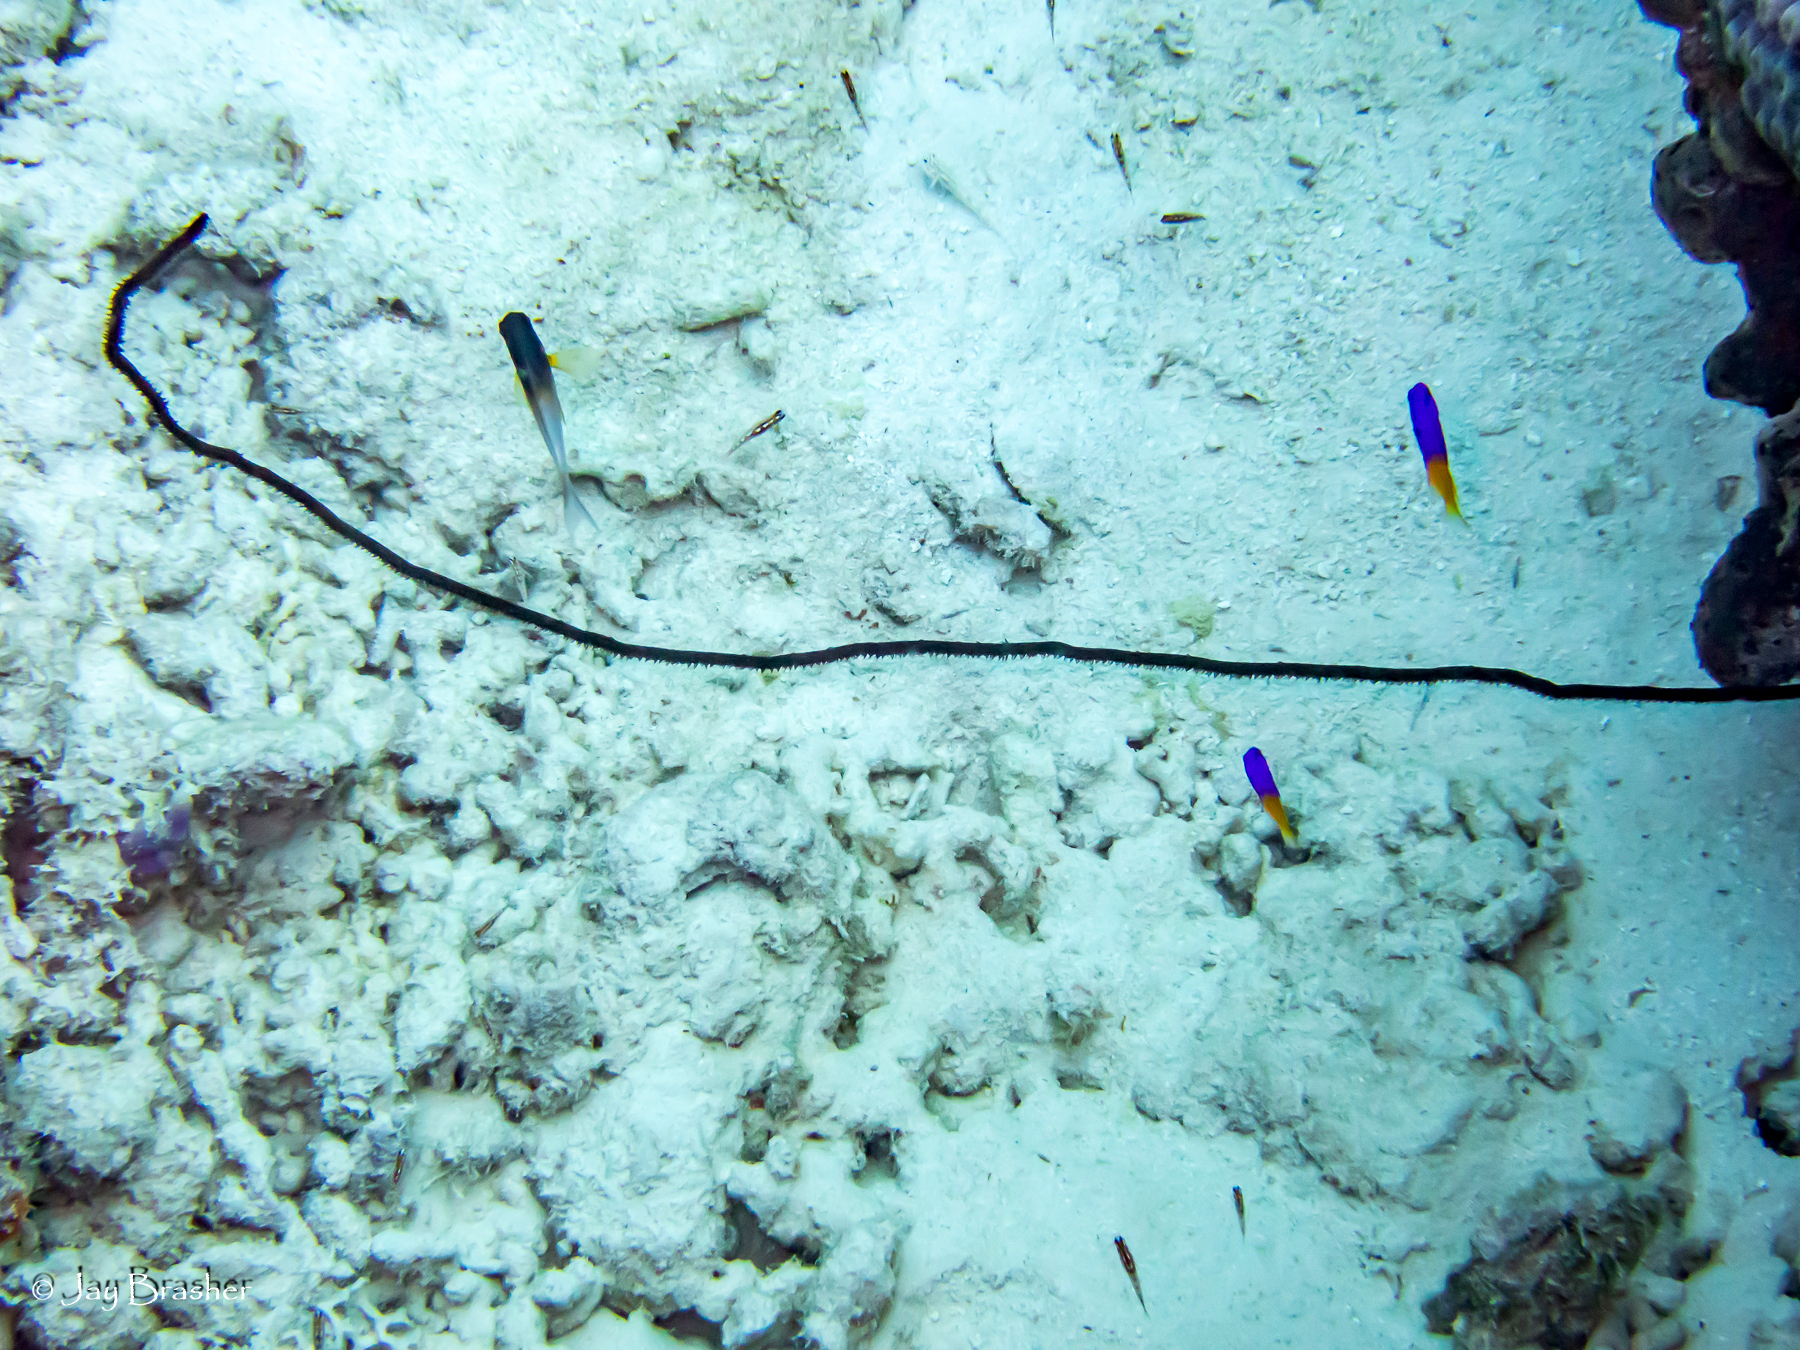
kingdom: Animalia
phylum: Chordata
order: Perciformes
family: Grammatidae
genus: Gramma
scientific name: Gramma loreto
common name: Fairy basslet
